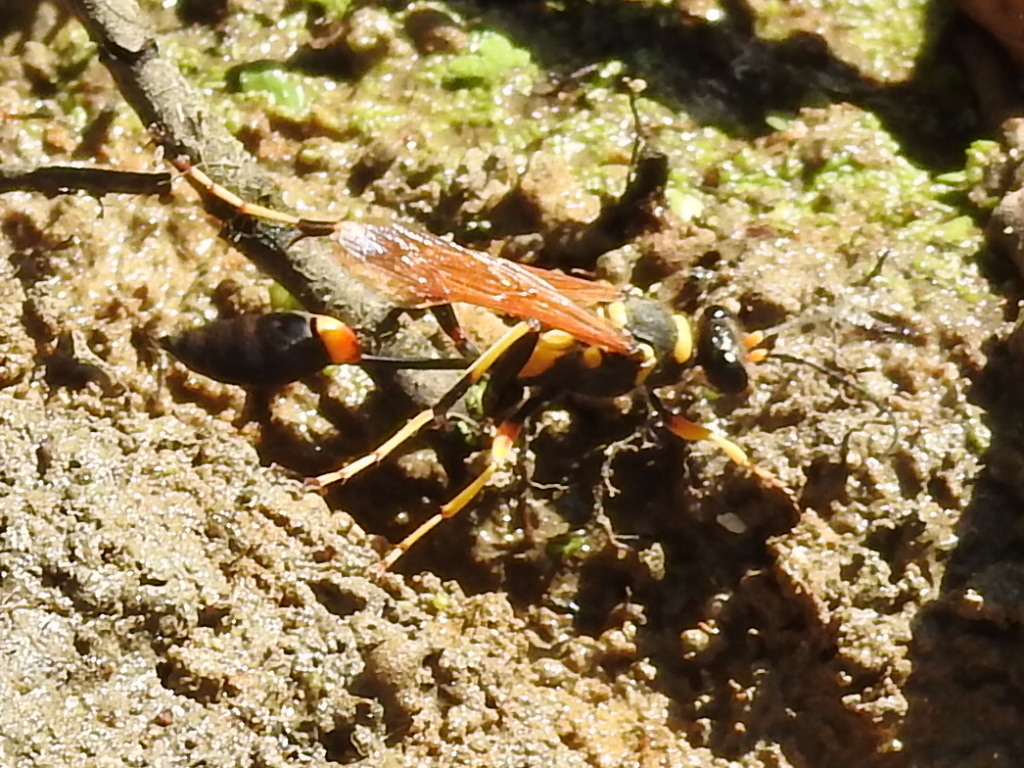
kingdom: Animalia
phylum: Arthropoda
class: Insecta
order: Hymenoptera
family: Sphecidae
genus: Sceliphron
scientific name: Sceliphron caementarium
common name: Mud dauber
